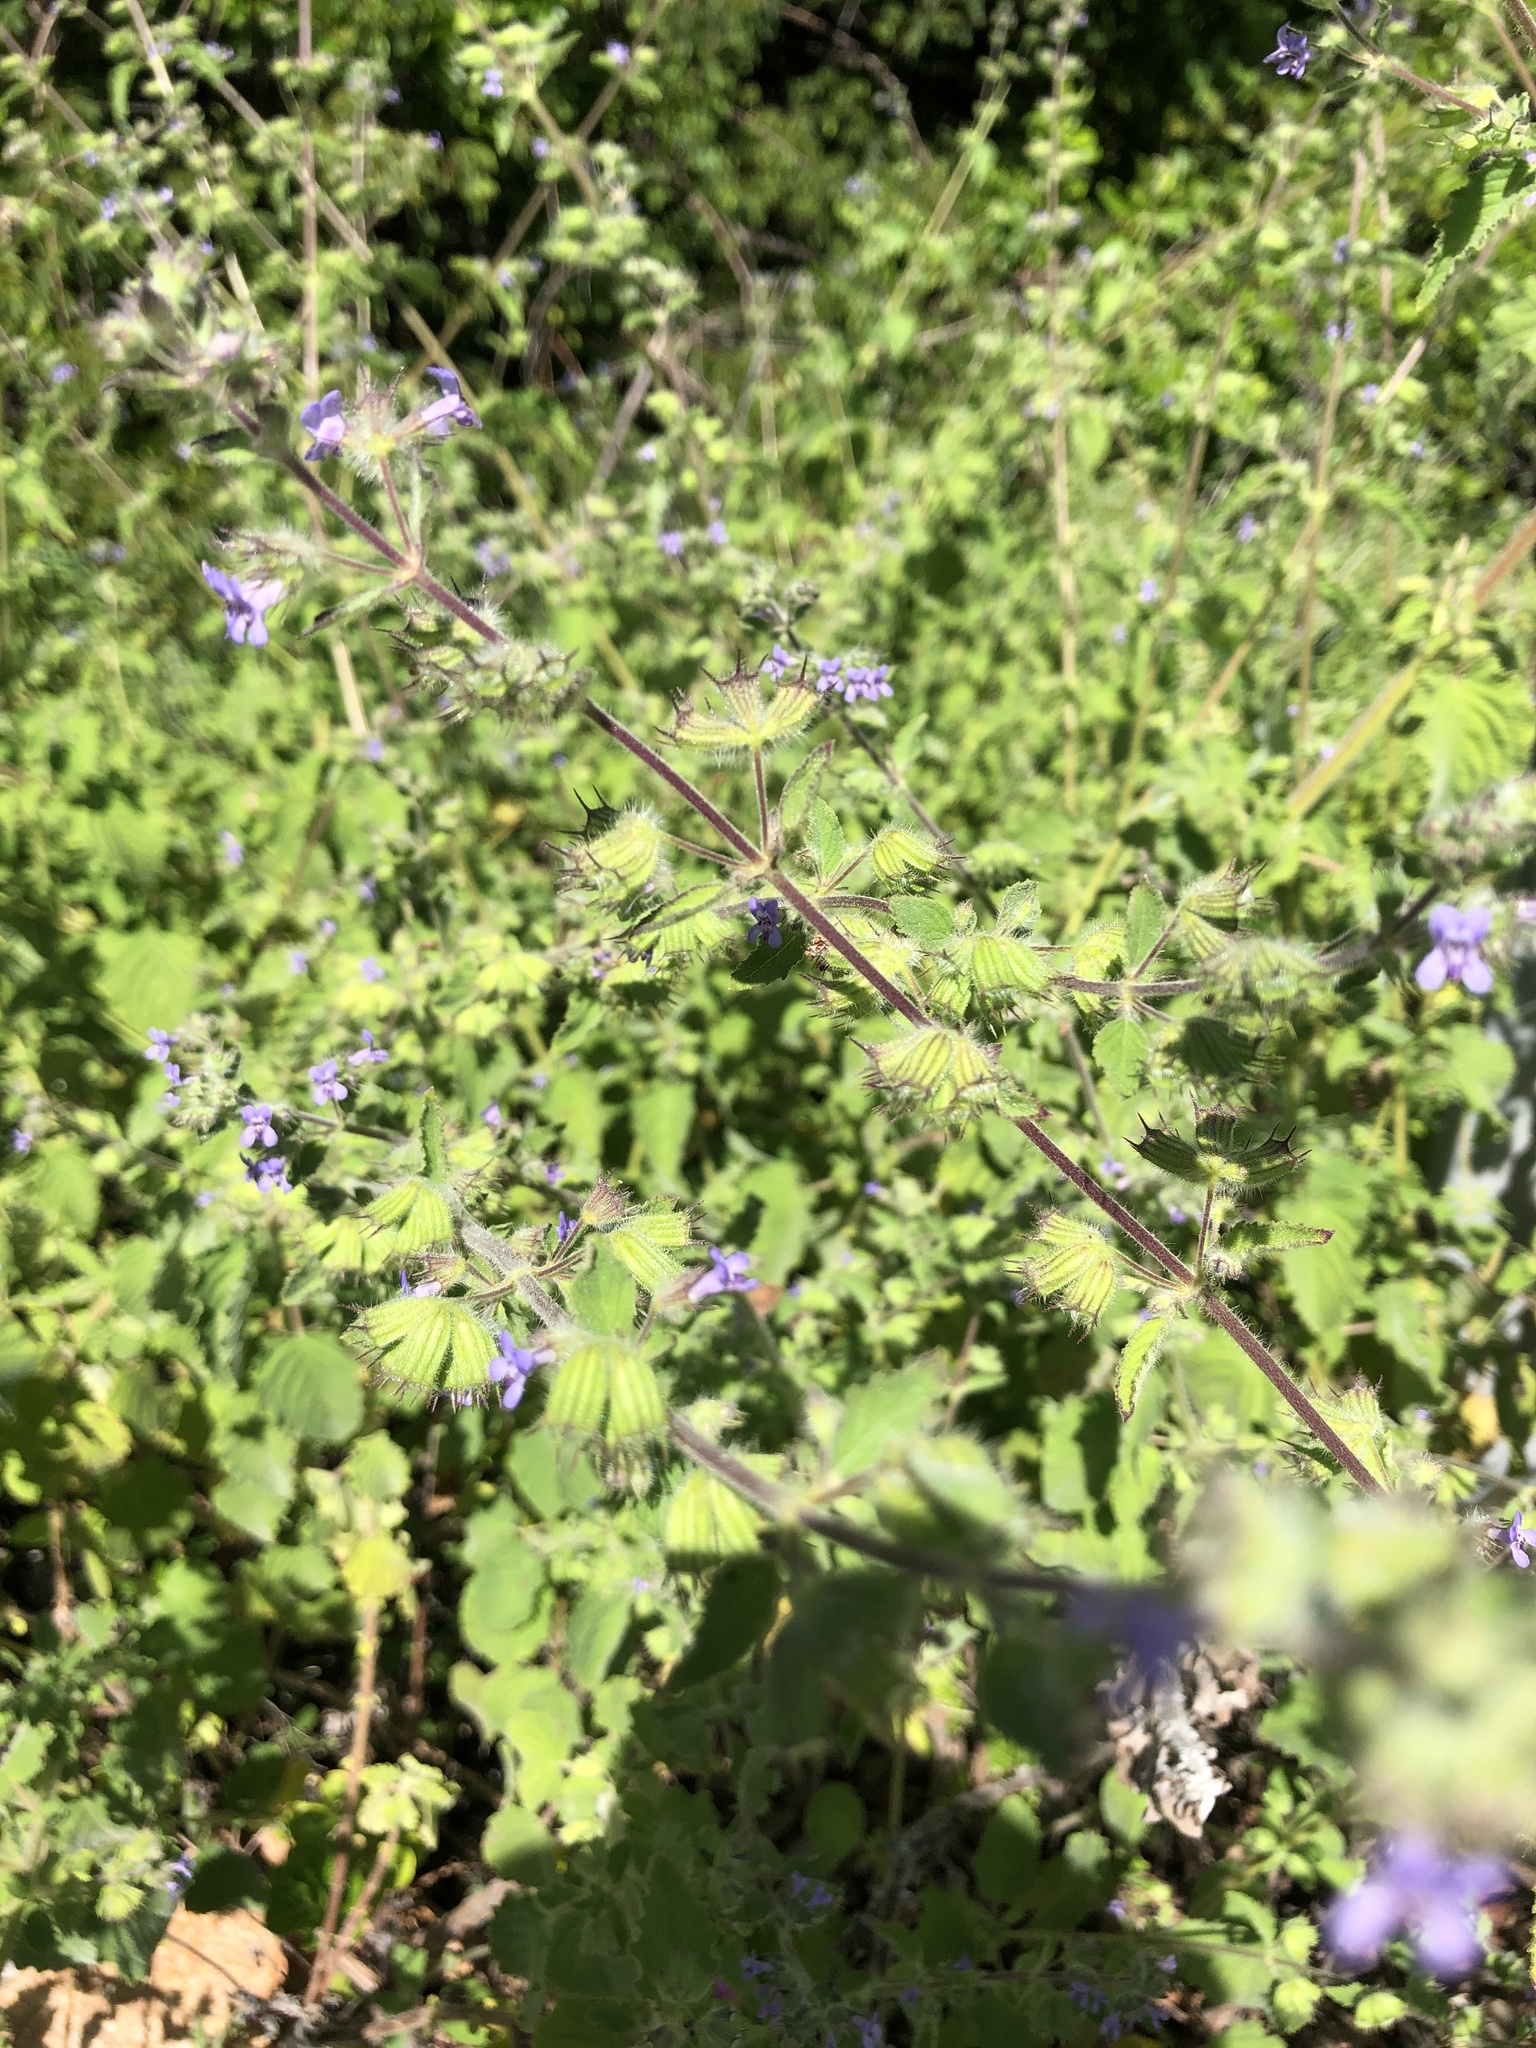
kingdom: Plantae
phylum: Tracheophyta
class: Magnoliopsida
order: Lamiales
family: Lamiaceae
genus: Mesosphaerum
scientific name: Mesosphaerum suaveolens
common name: Pignut
